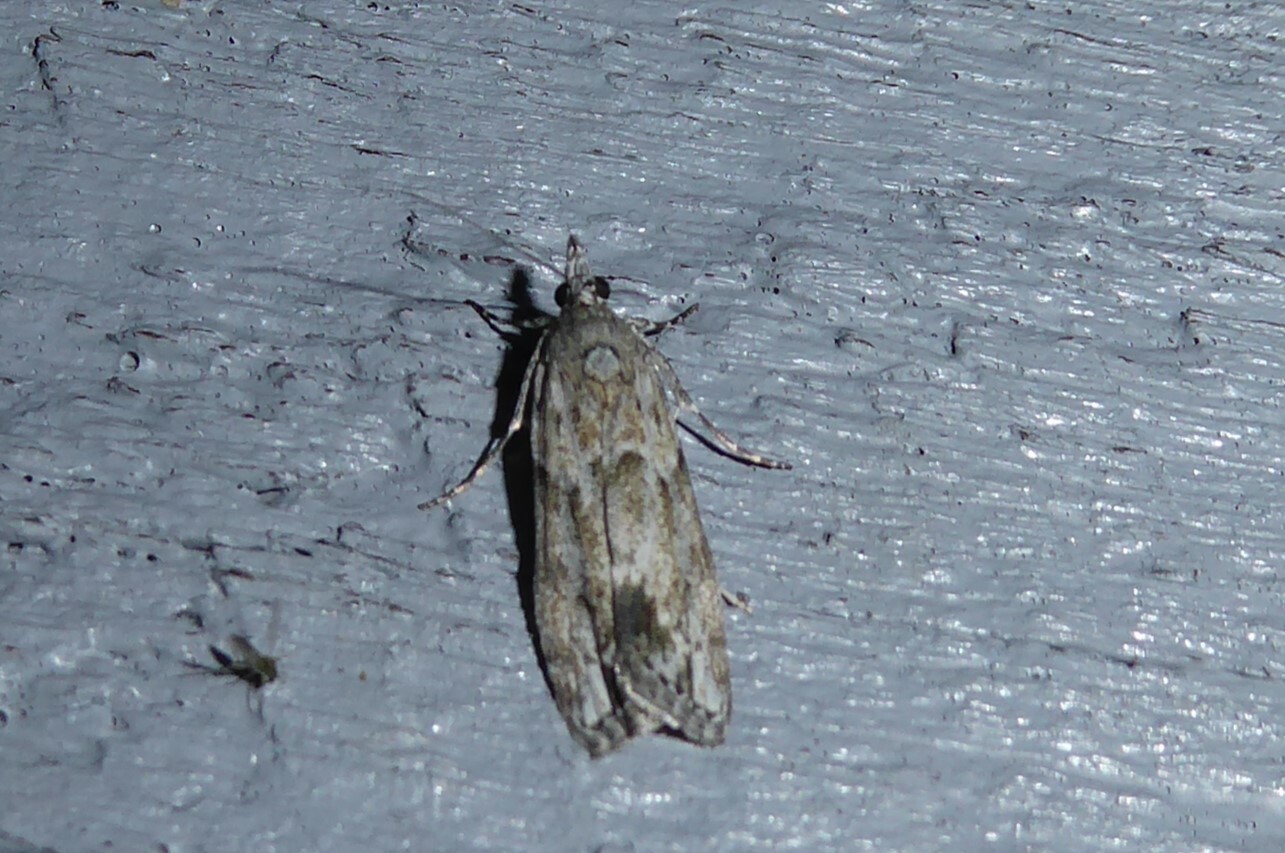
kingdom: Animalia
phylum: Arthropoda
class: Insecta
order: Lepidoptera
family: Crambidae
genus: Eudonia
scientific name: Eudonia rakaiensis
